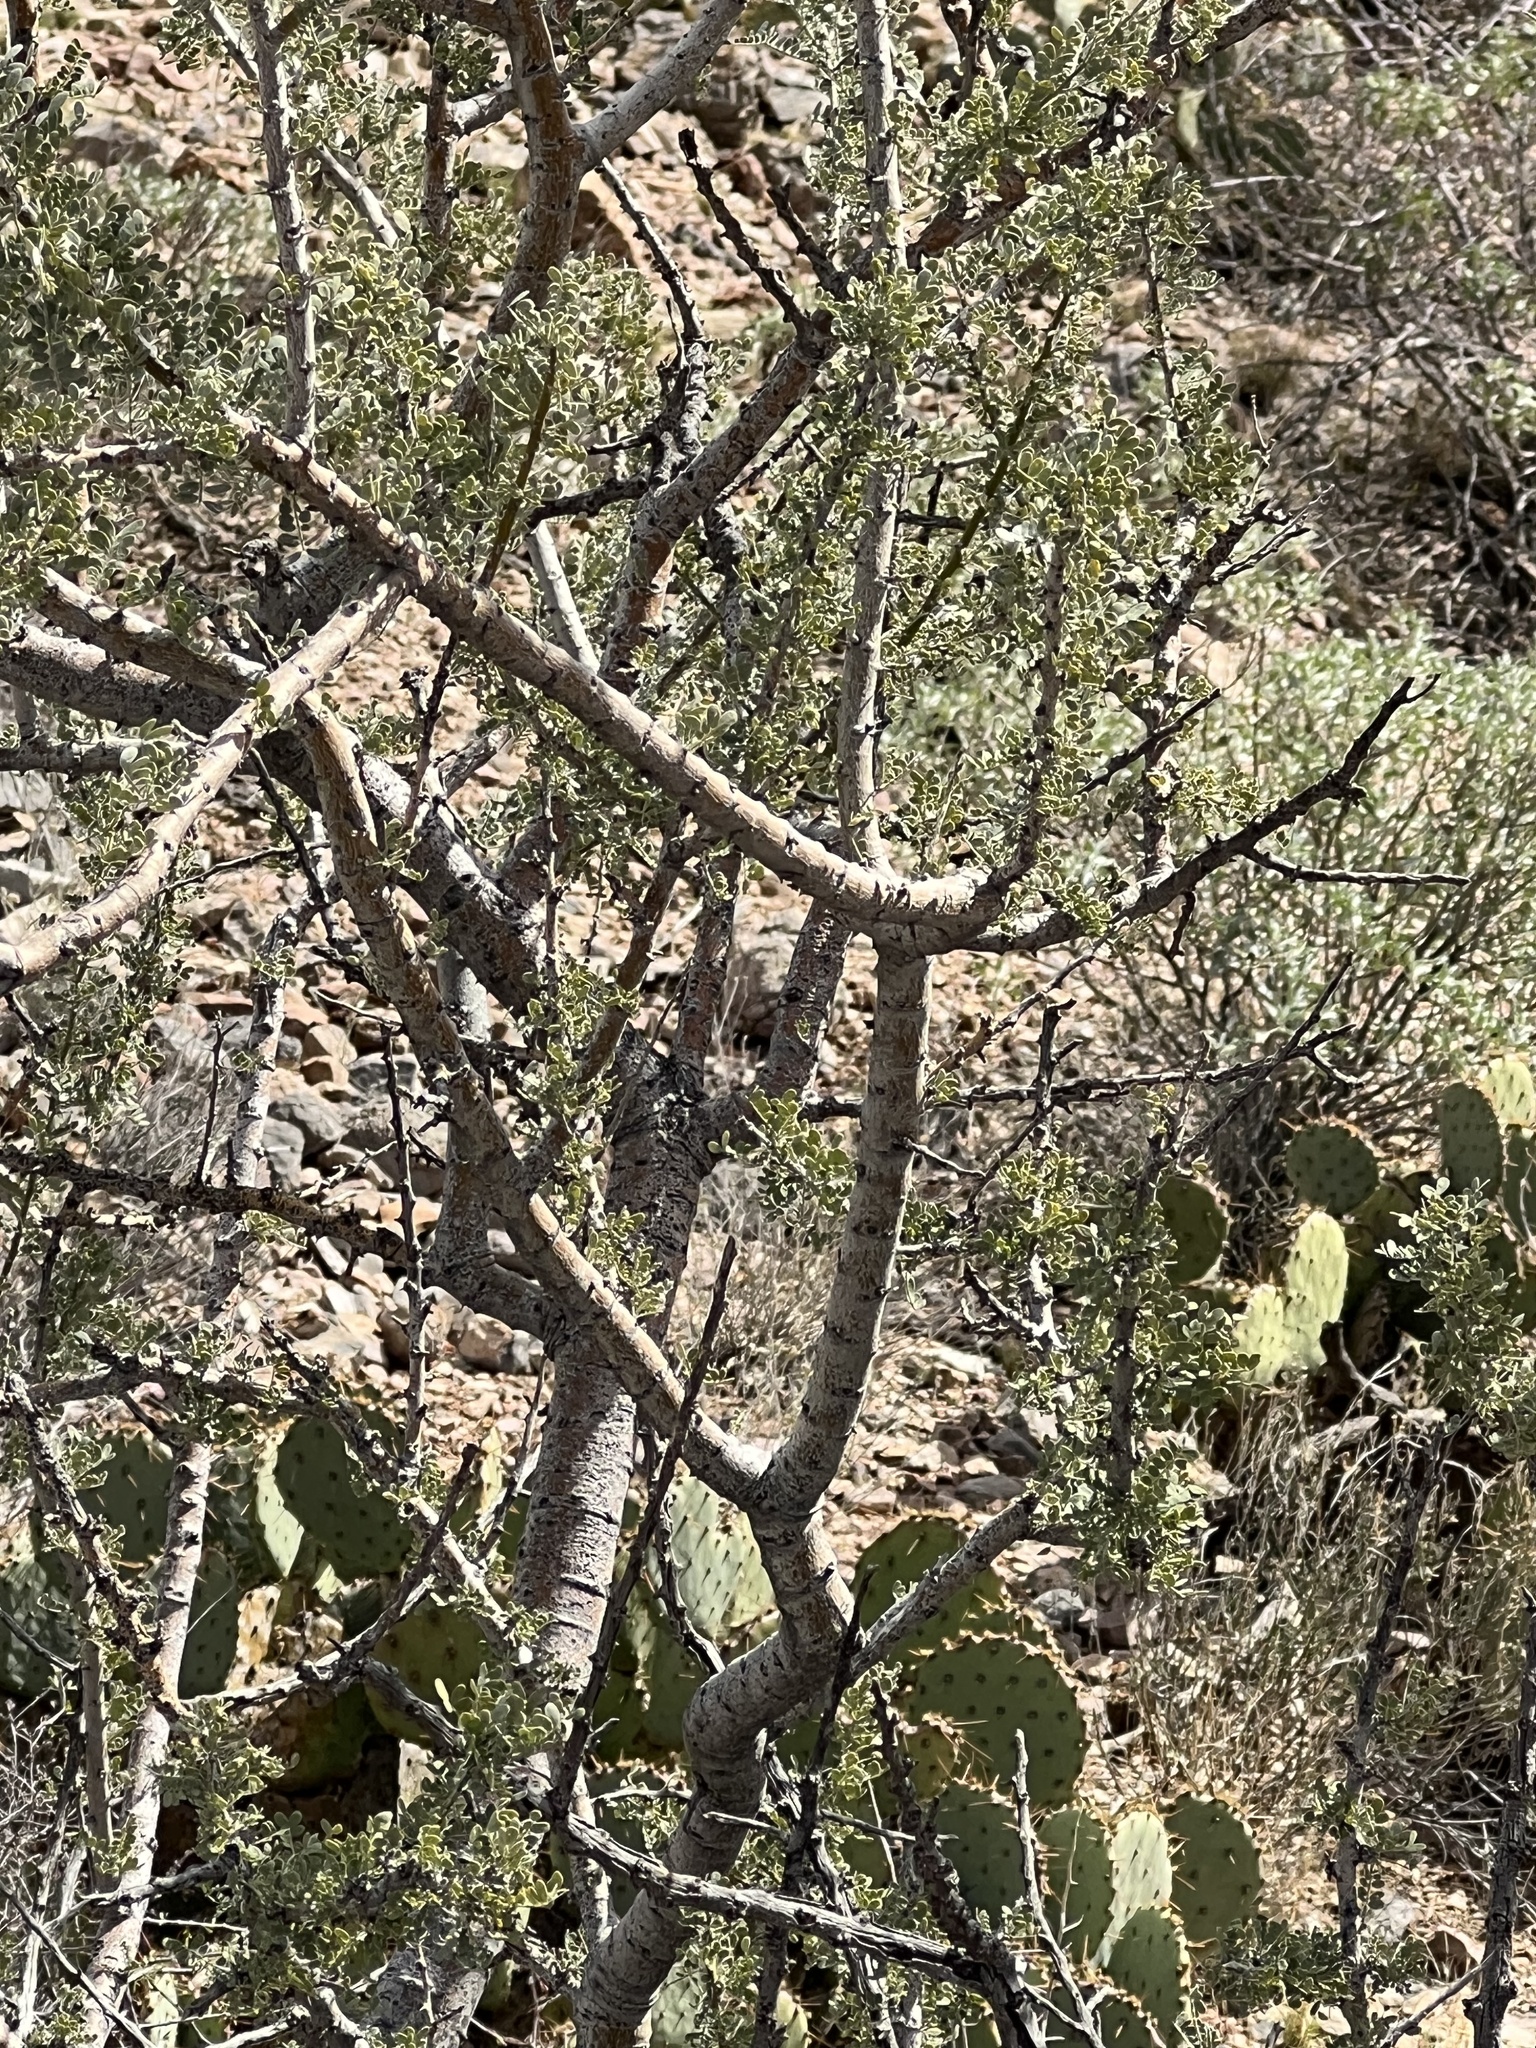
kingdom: Plantae
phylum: Tracheophyta
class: Magnoliopsida
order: Fabales
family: Fabaceae
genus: Olneya
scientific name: Olneya tesota
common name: Desert ironwood
